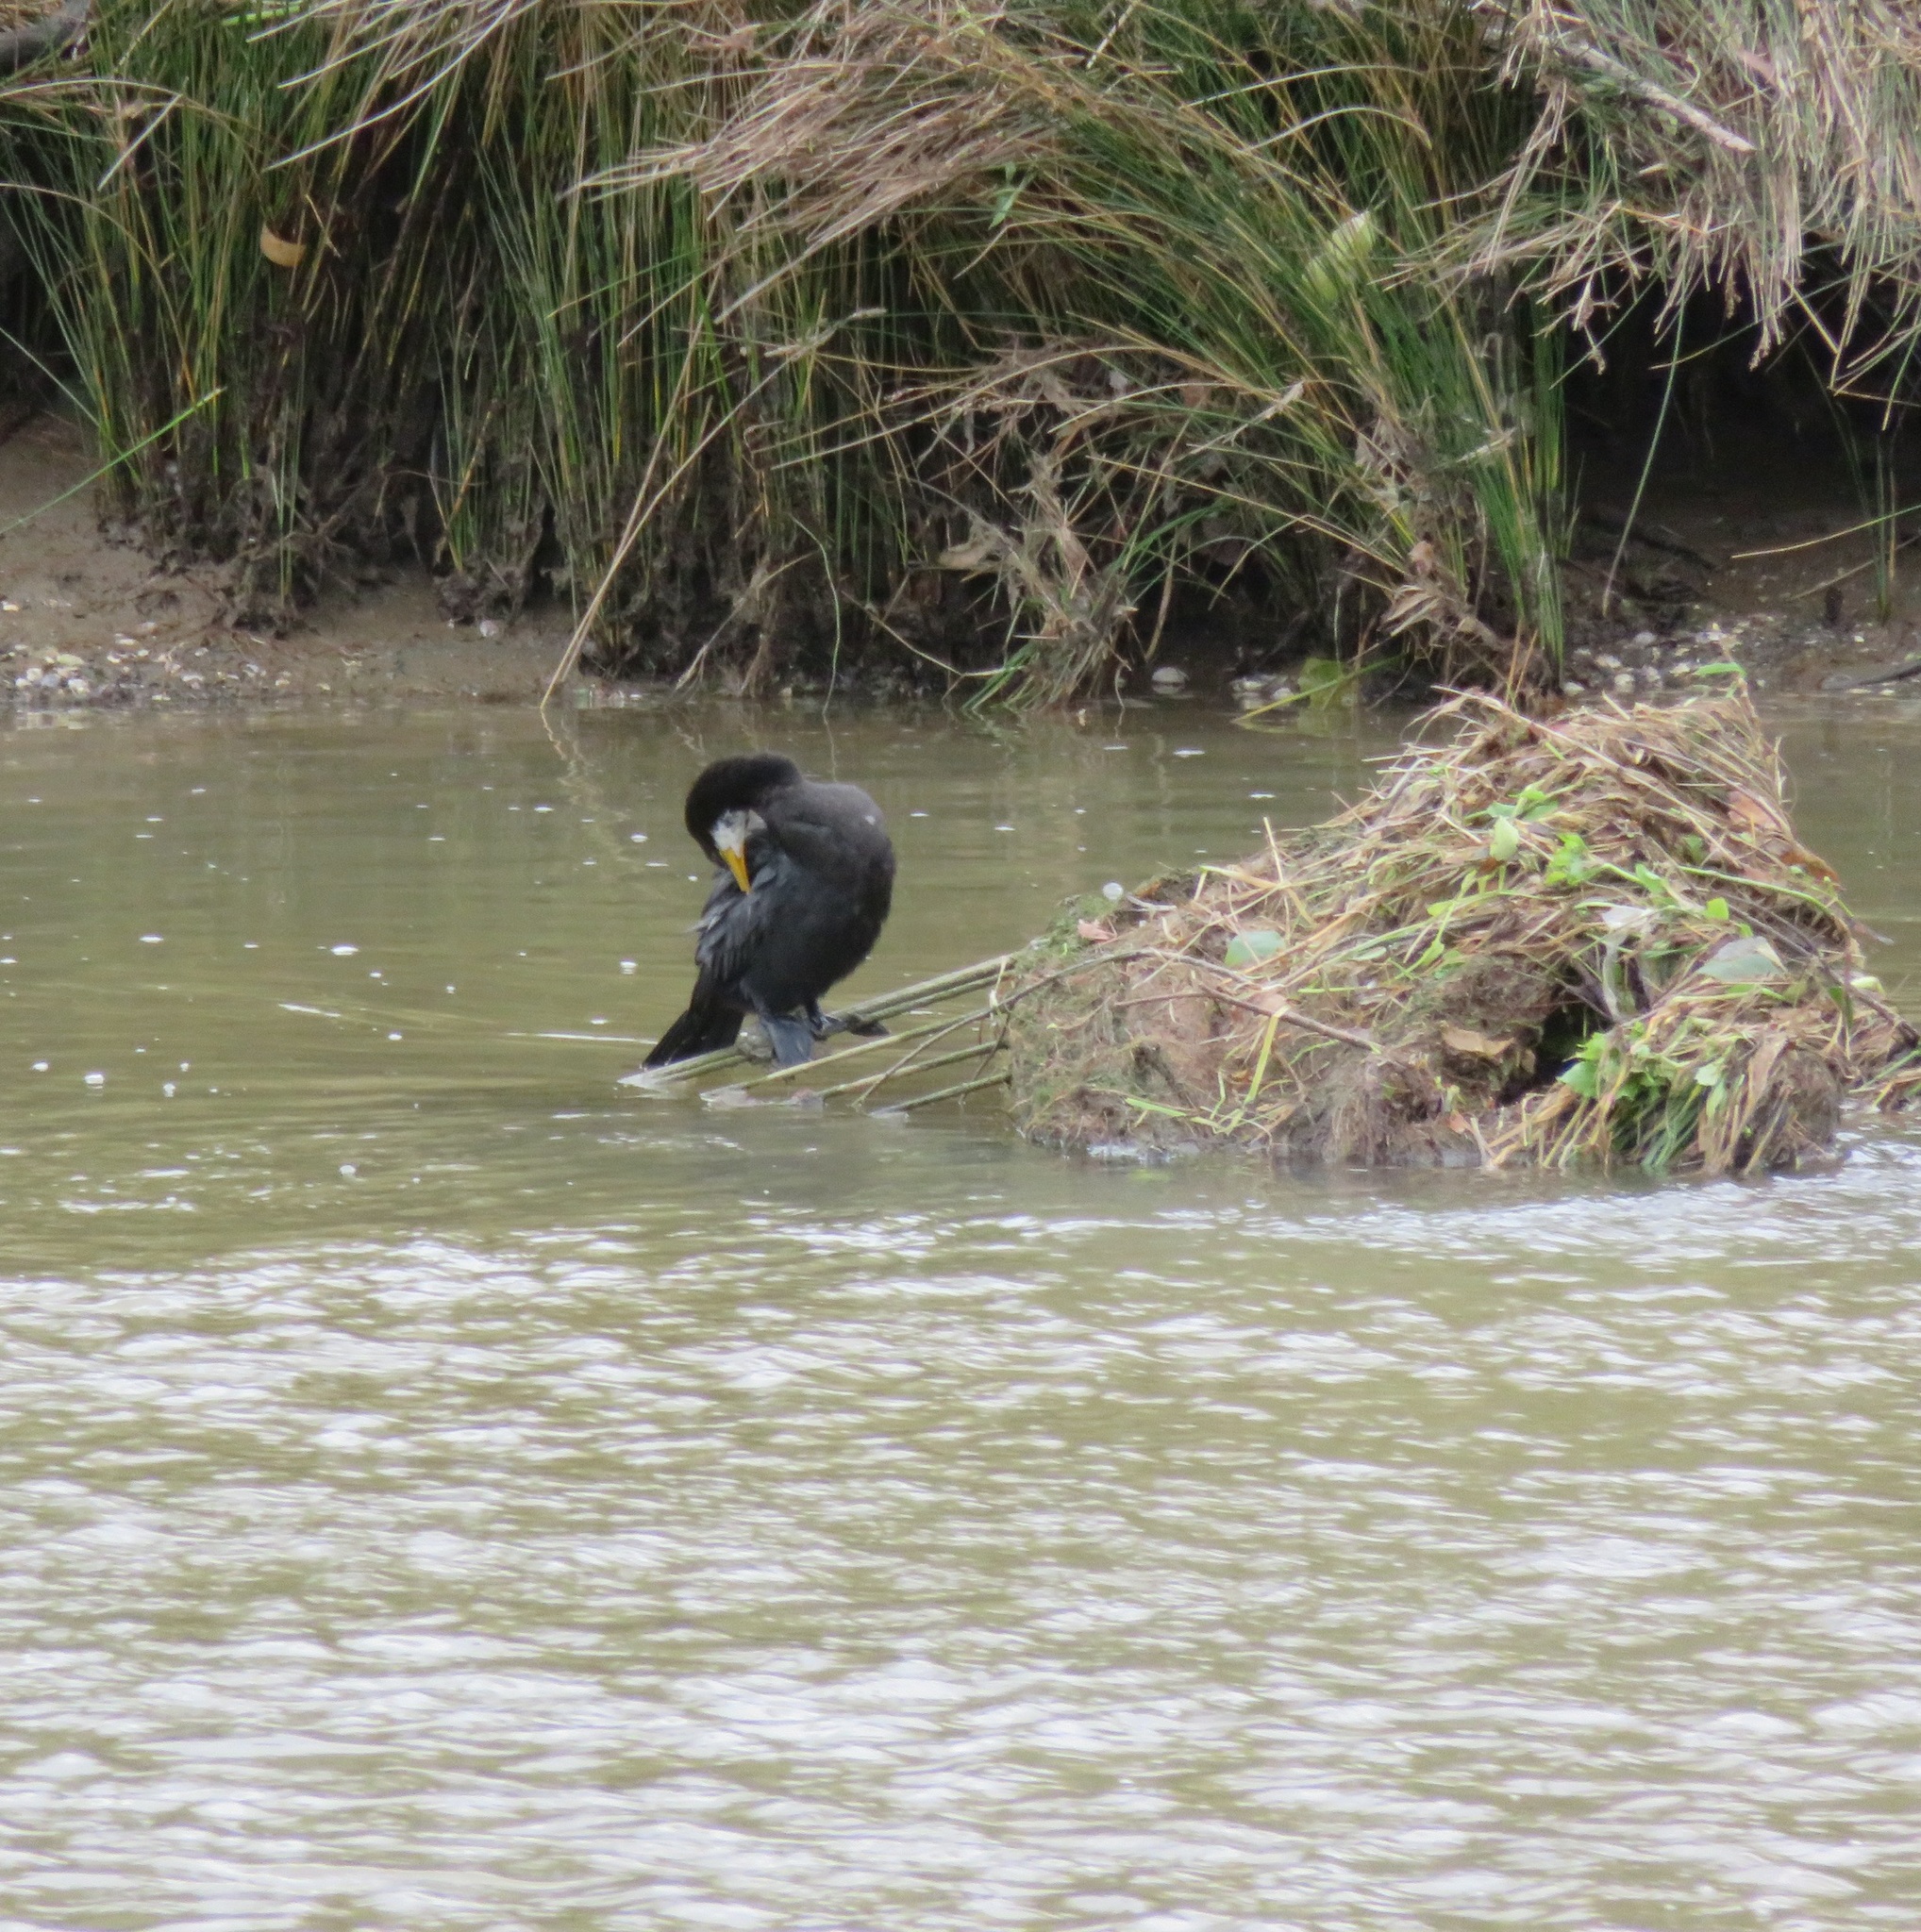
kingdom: Animalia
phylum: Chordata
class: Aves
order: Suliformes
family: Phalacrocoracidae
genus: Microcarbo
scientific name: Microcarbo melanoleucos
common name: Little pied cormorant
